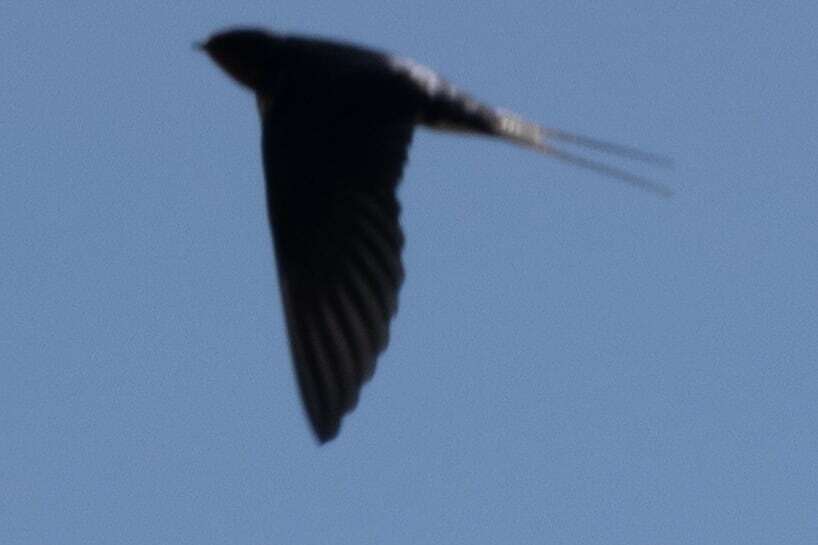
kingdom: Animalia
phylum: Chordata
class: Aves
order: Passeriformes
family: Hirundinidae
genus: Hirundo
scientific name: Hirundo rustica
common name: Barn swallow
